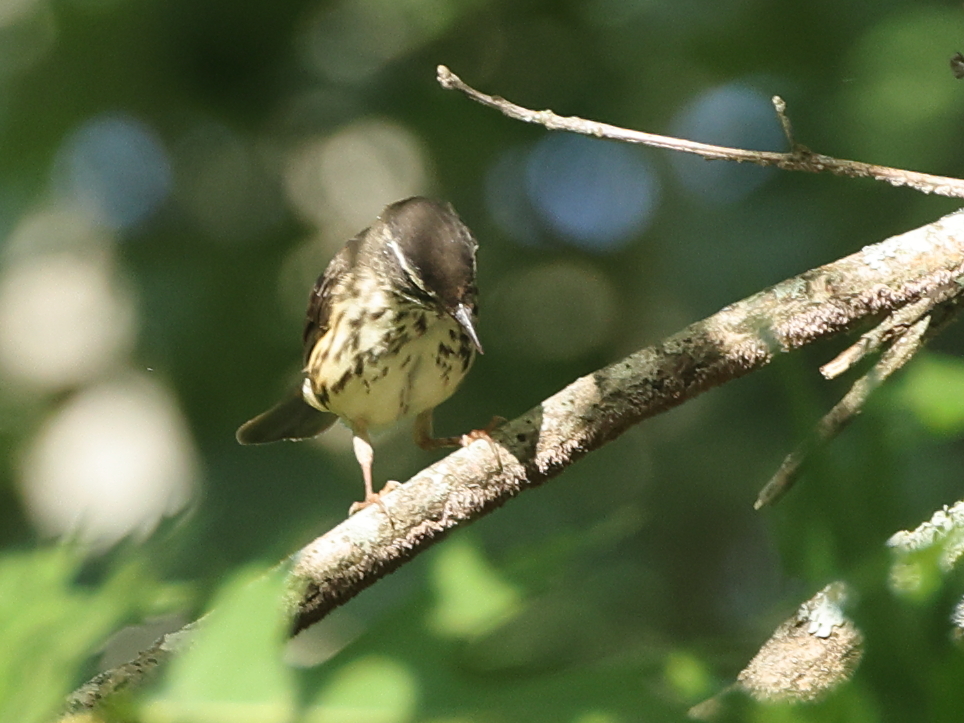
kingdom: Animalia
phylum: Chordata
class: Aves
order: Passeriformes
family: Parulidae
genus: Parkesia
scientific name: Parkesia motacilla
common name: Louisiana waterthrush
